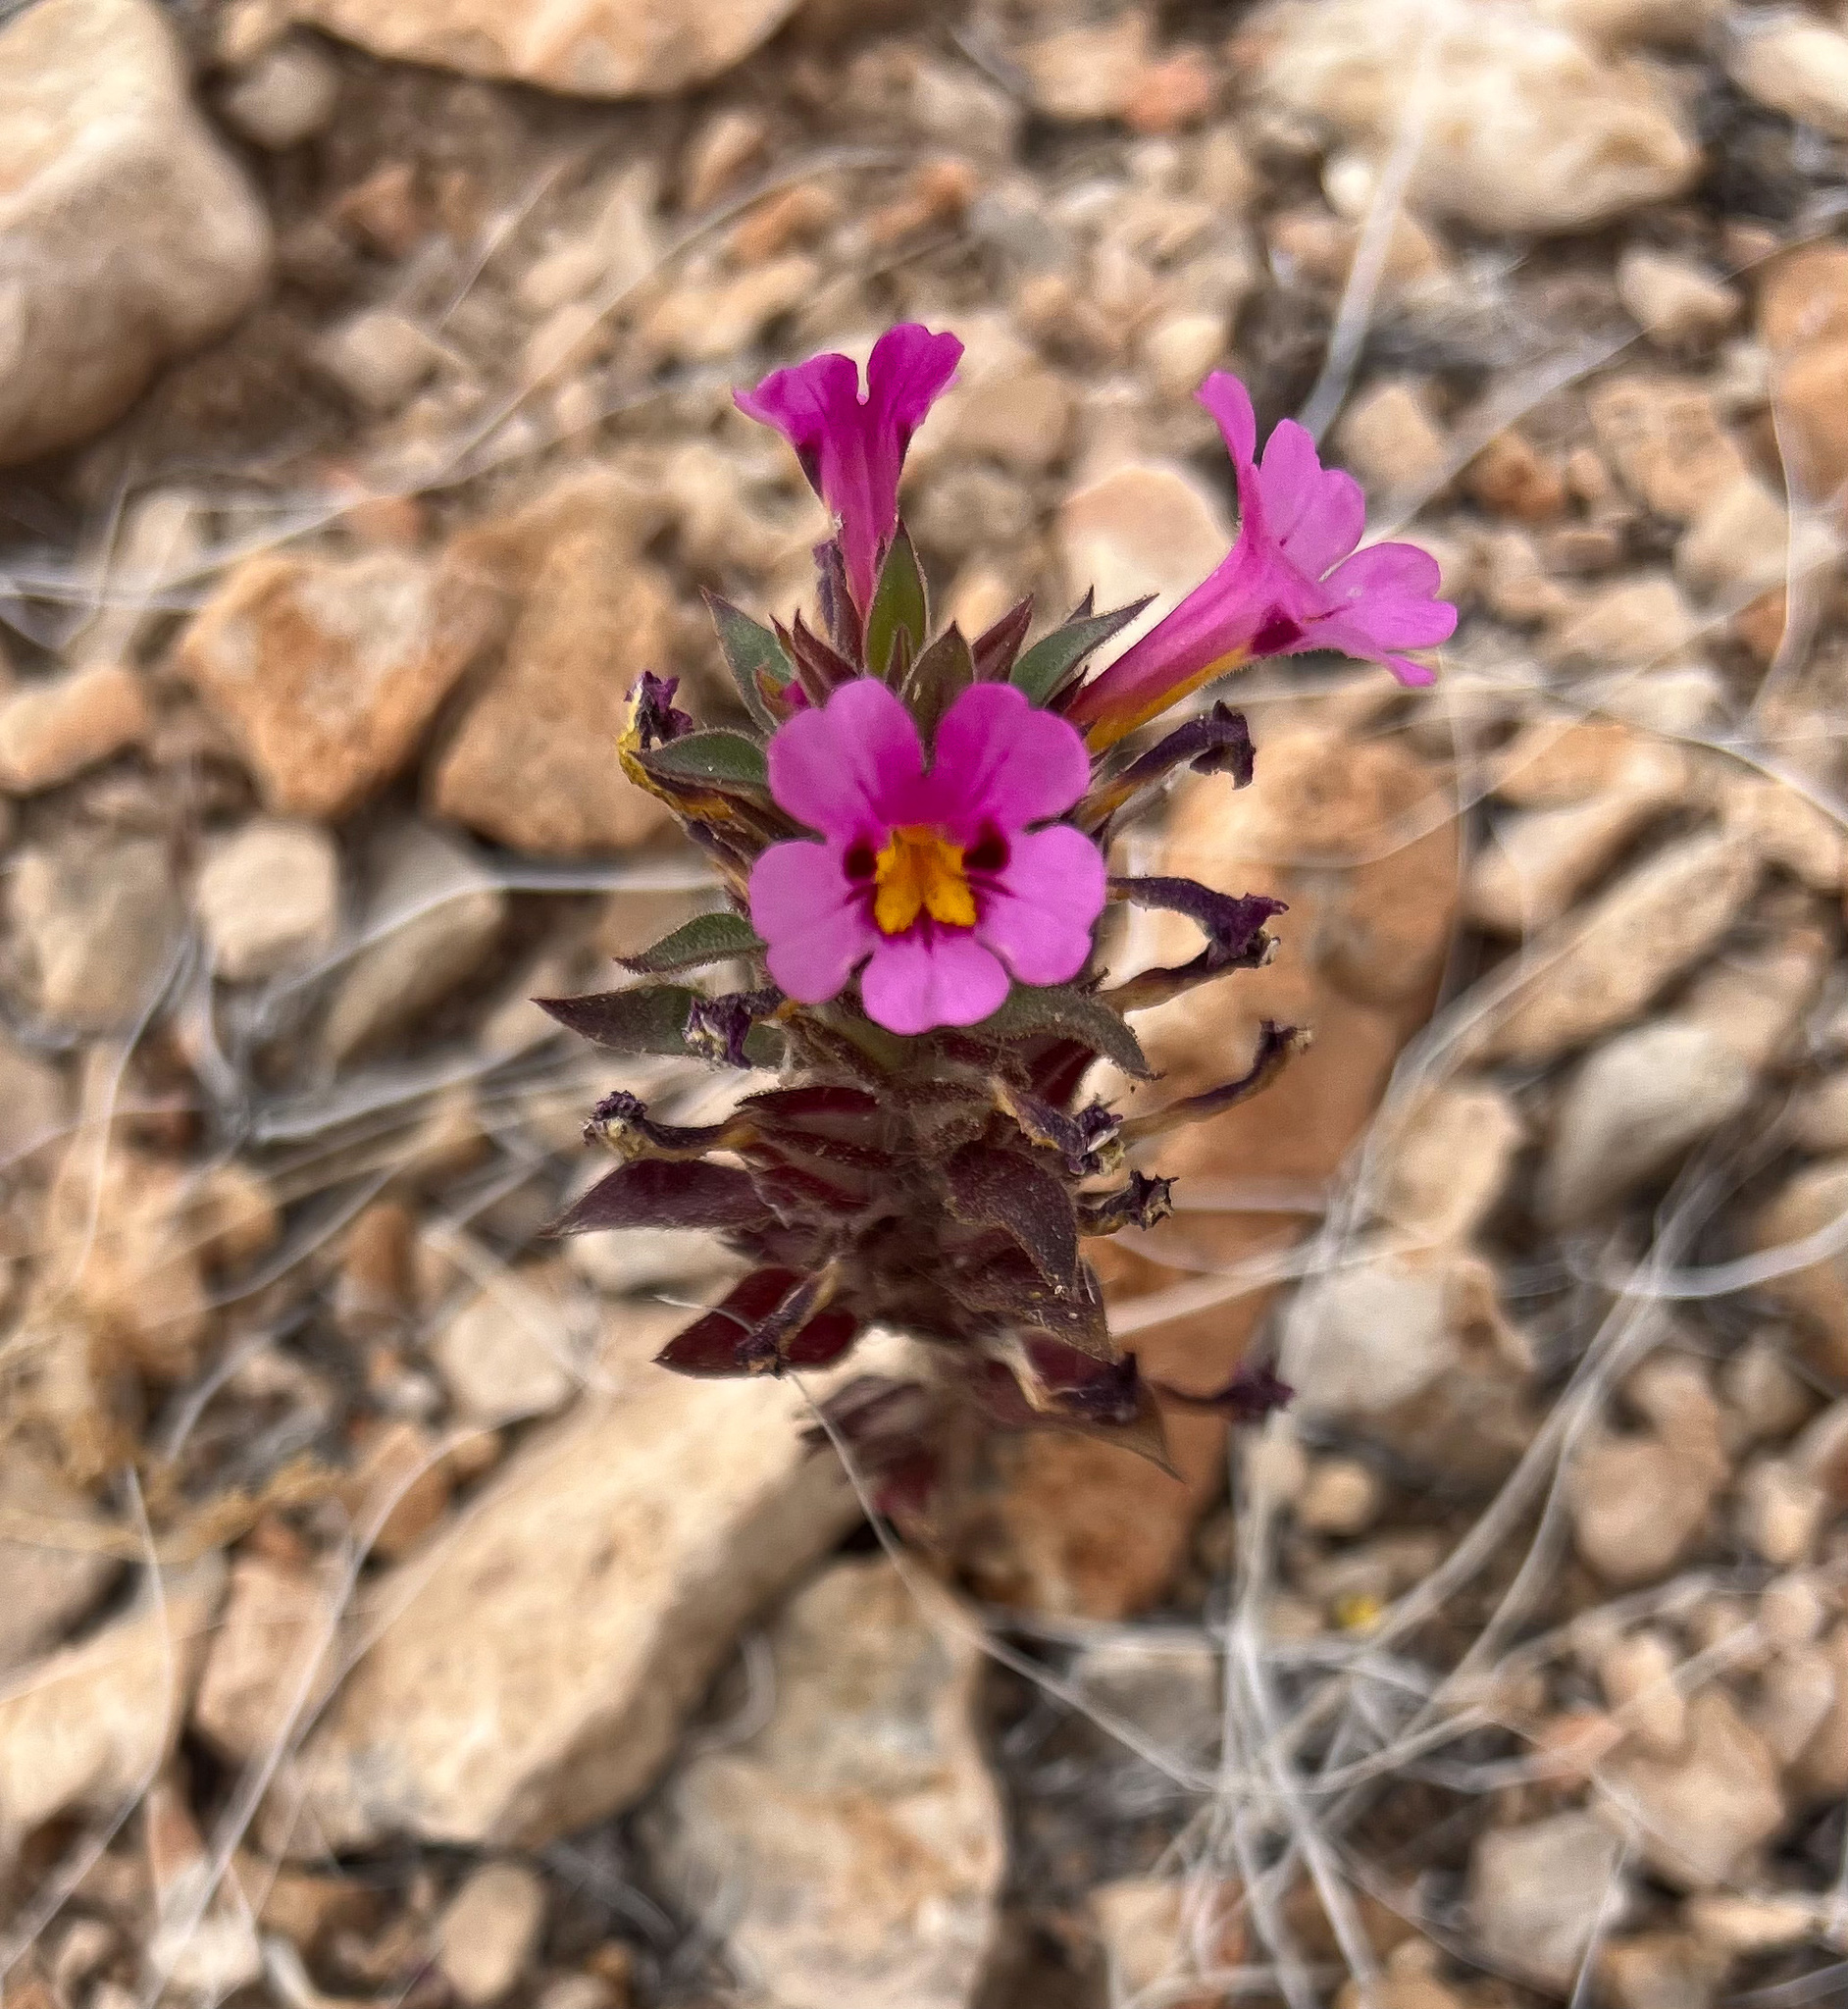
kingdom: Plantae
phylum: Tracheophyta
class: Magnoliopsida
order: Lamiales
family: Phrymaceae
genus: Diplacus
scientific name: Diplacus bigelovii
